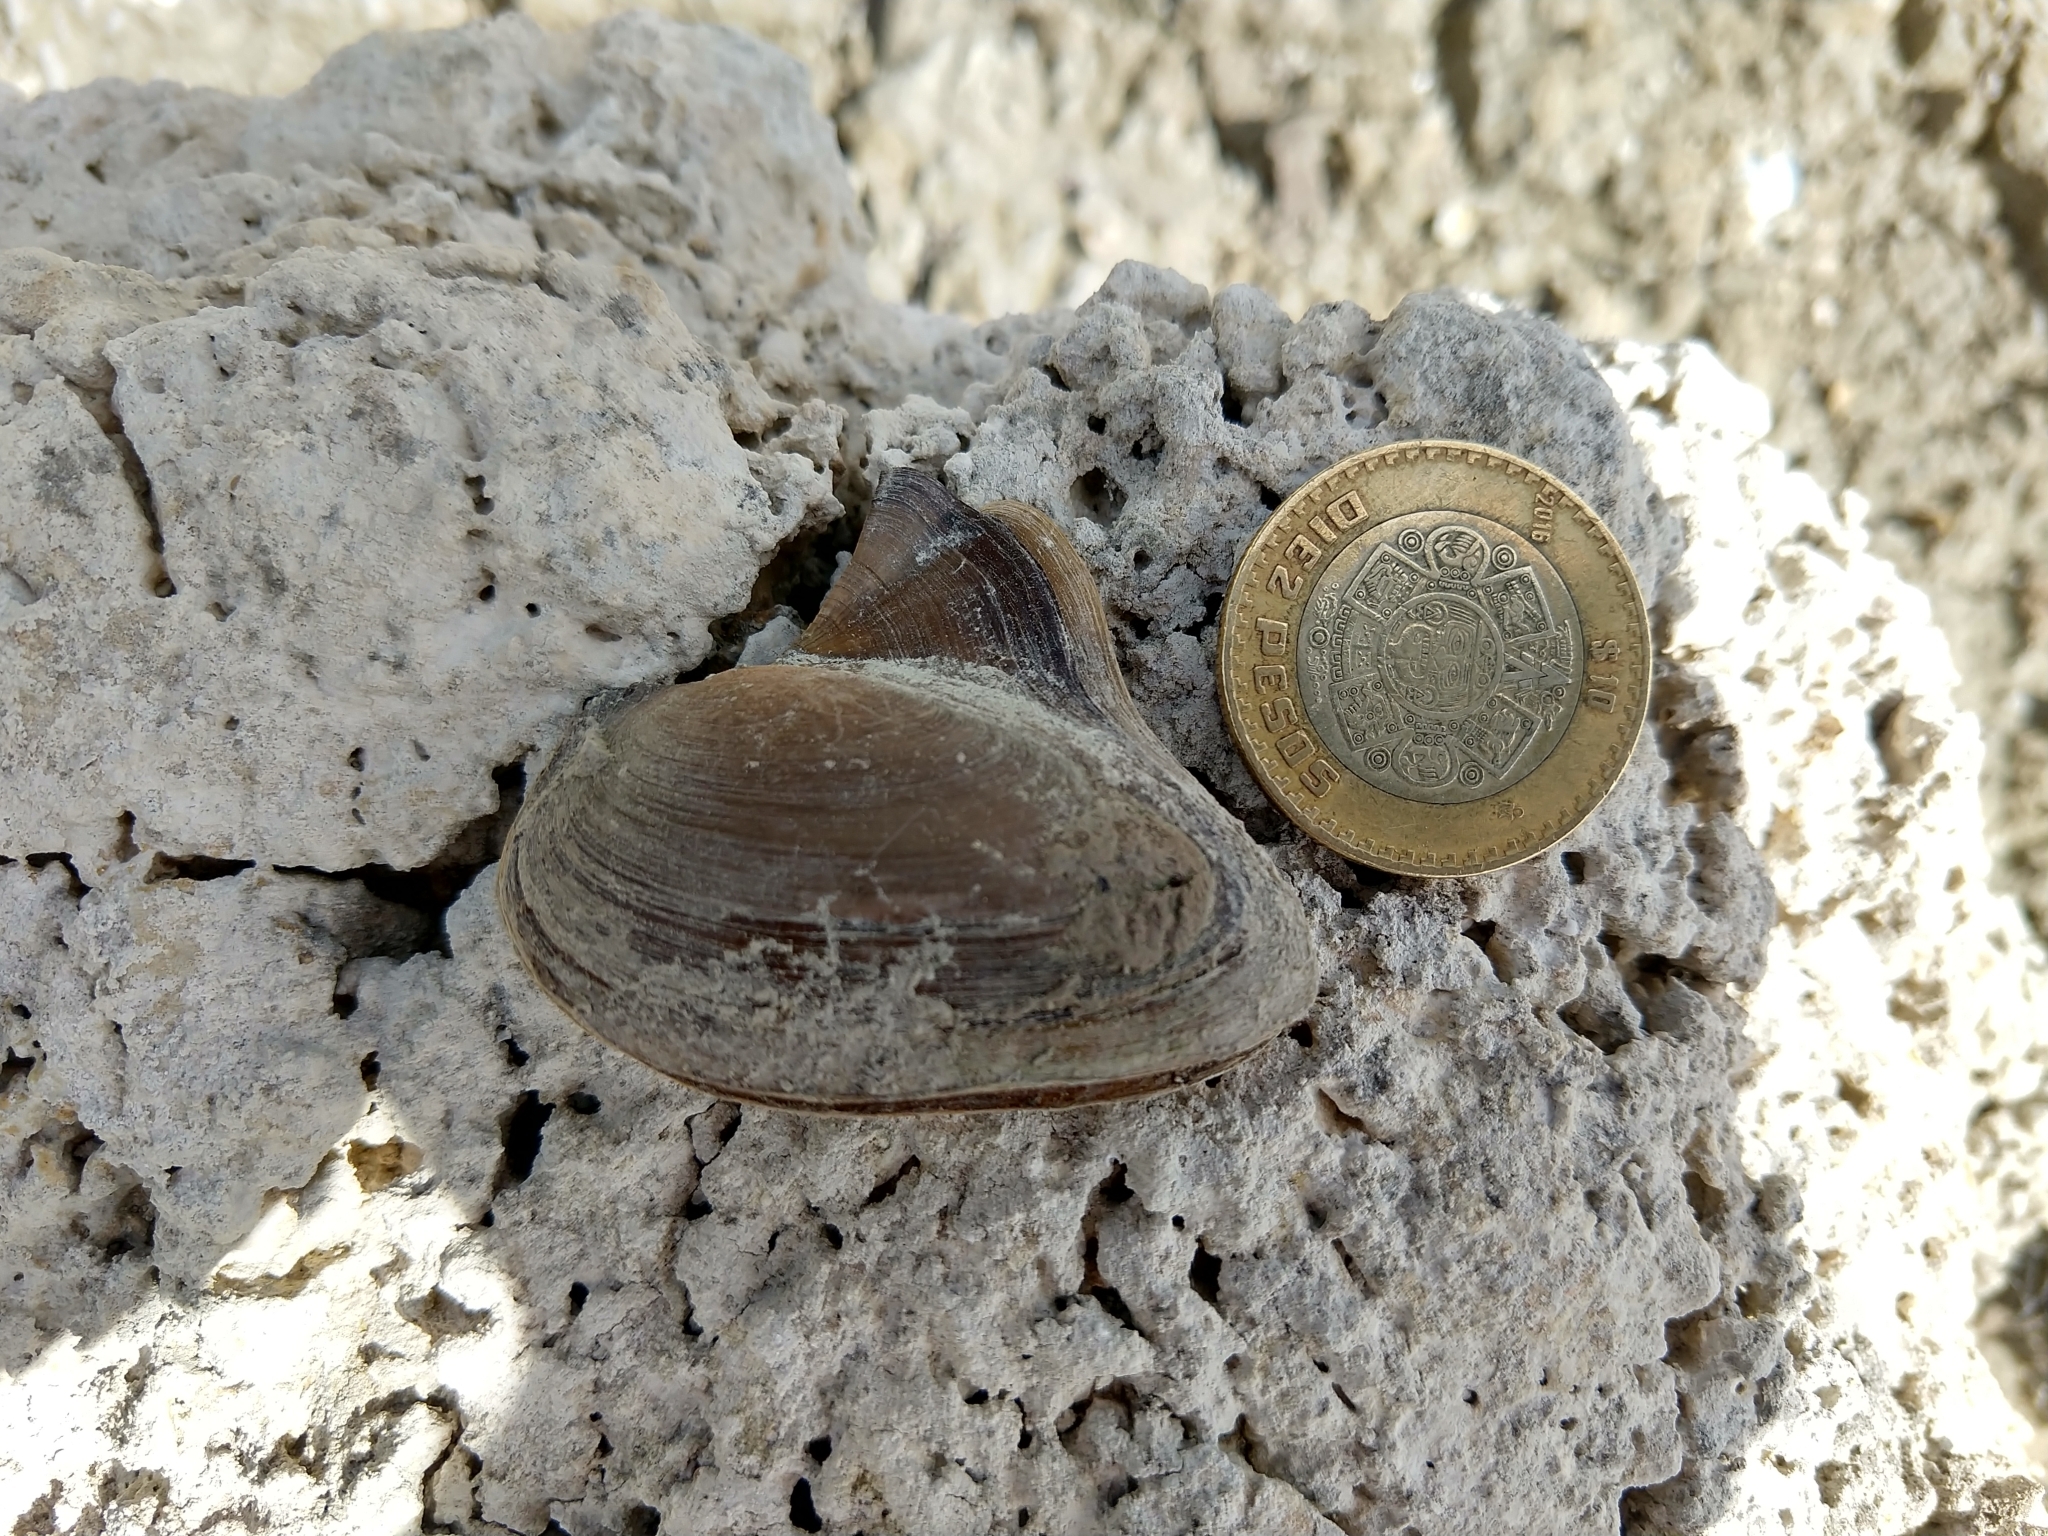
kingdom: Animalia
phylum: Mollusca
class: Bivalvia
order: Unionida
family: Unionidae
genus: Delphinonaias
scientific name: Delphinonaias largillierti
